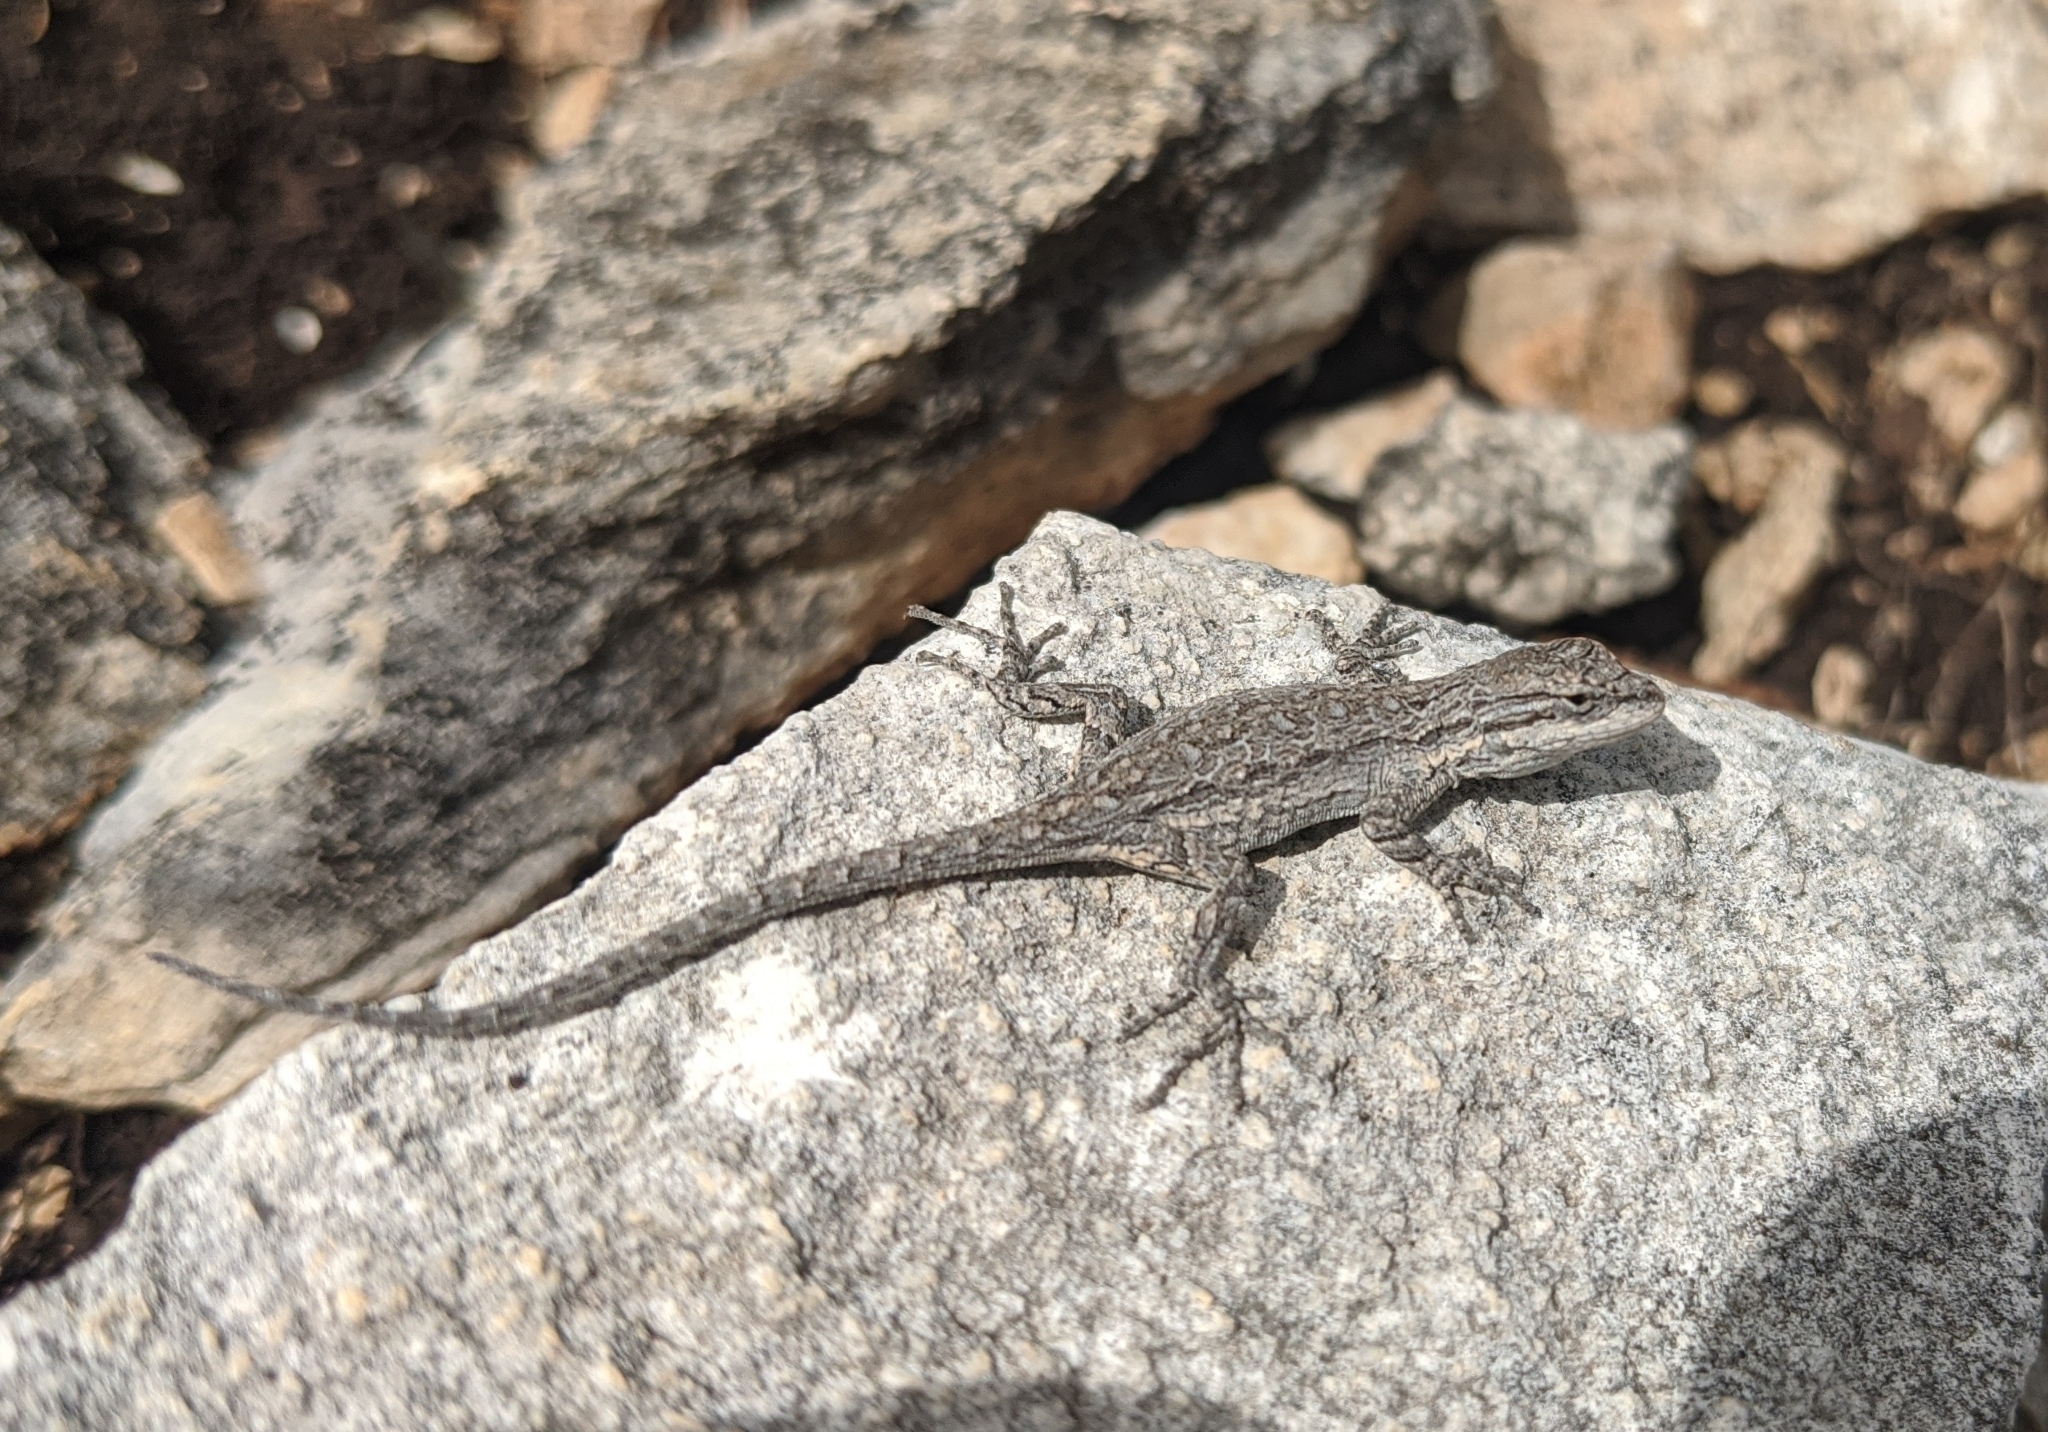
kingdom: Animalia
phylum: Chordata
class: Squamata
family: Phrynosomatidae
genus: Urosaurus
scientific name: Urosaurus ornatus
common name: Ornate tree lizard
